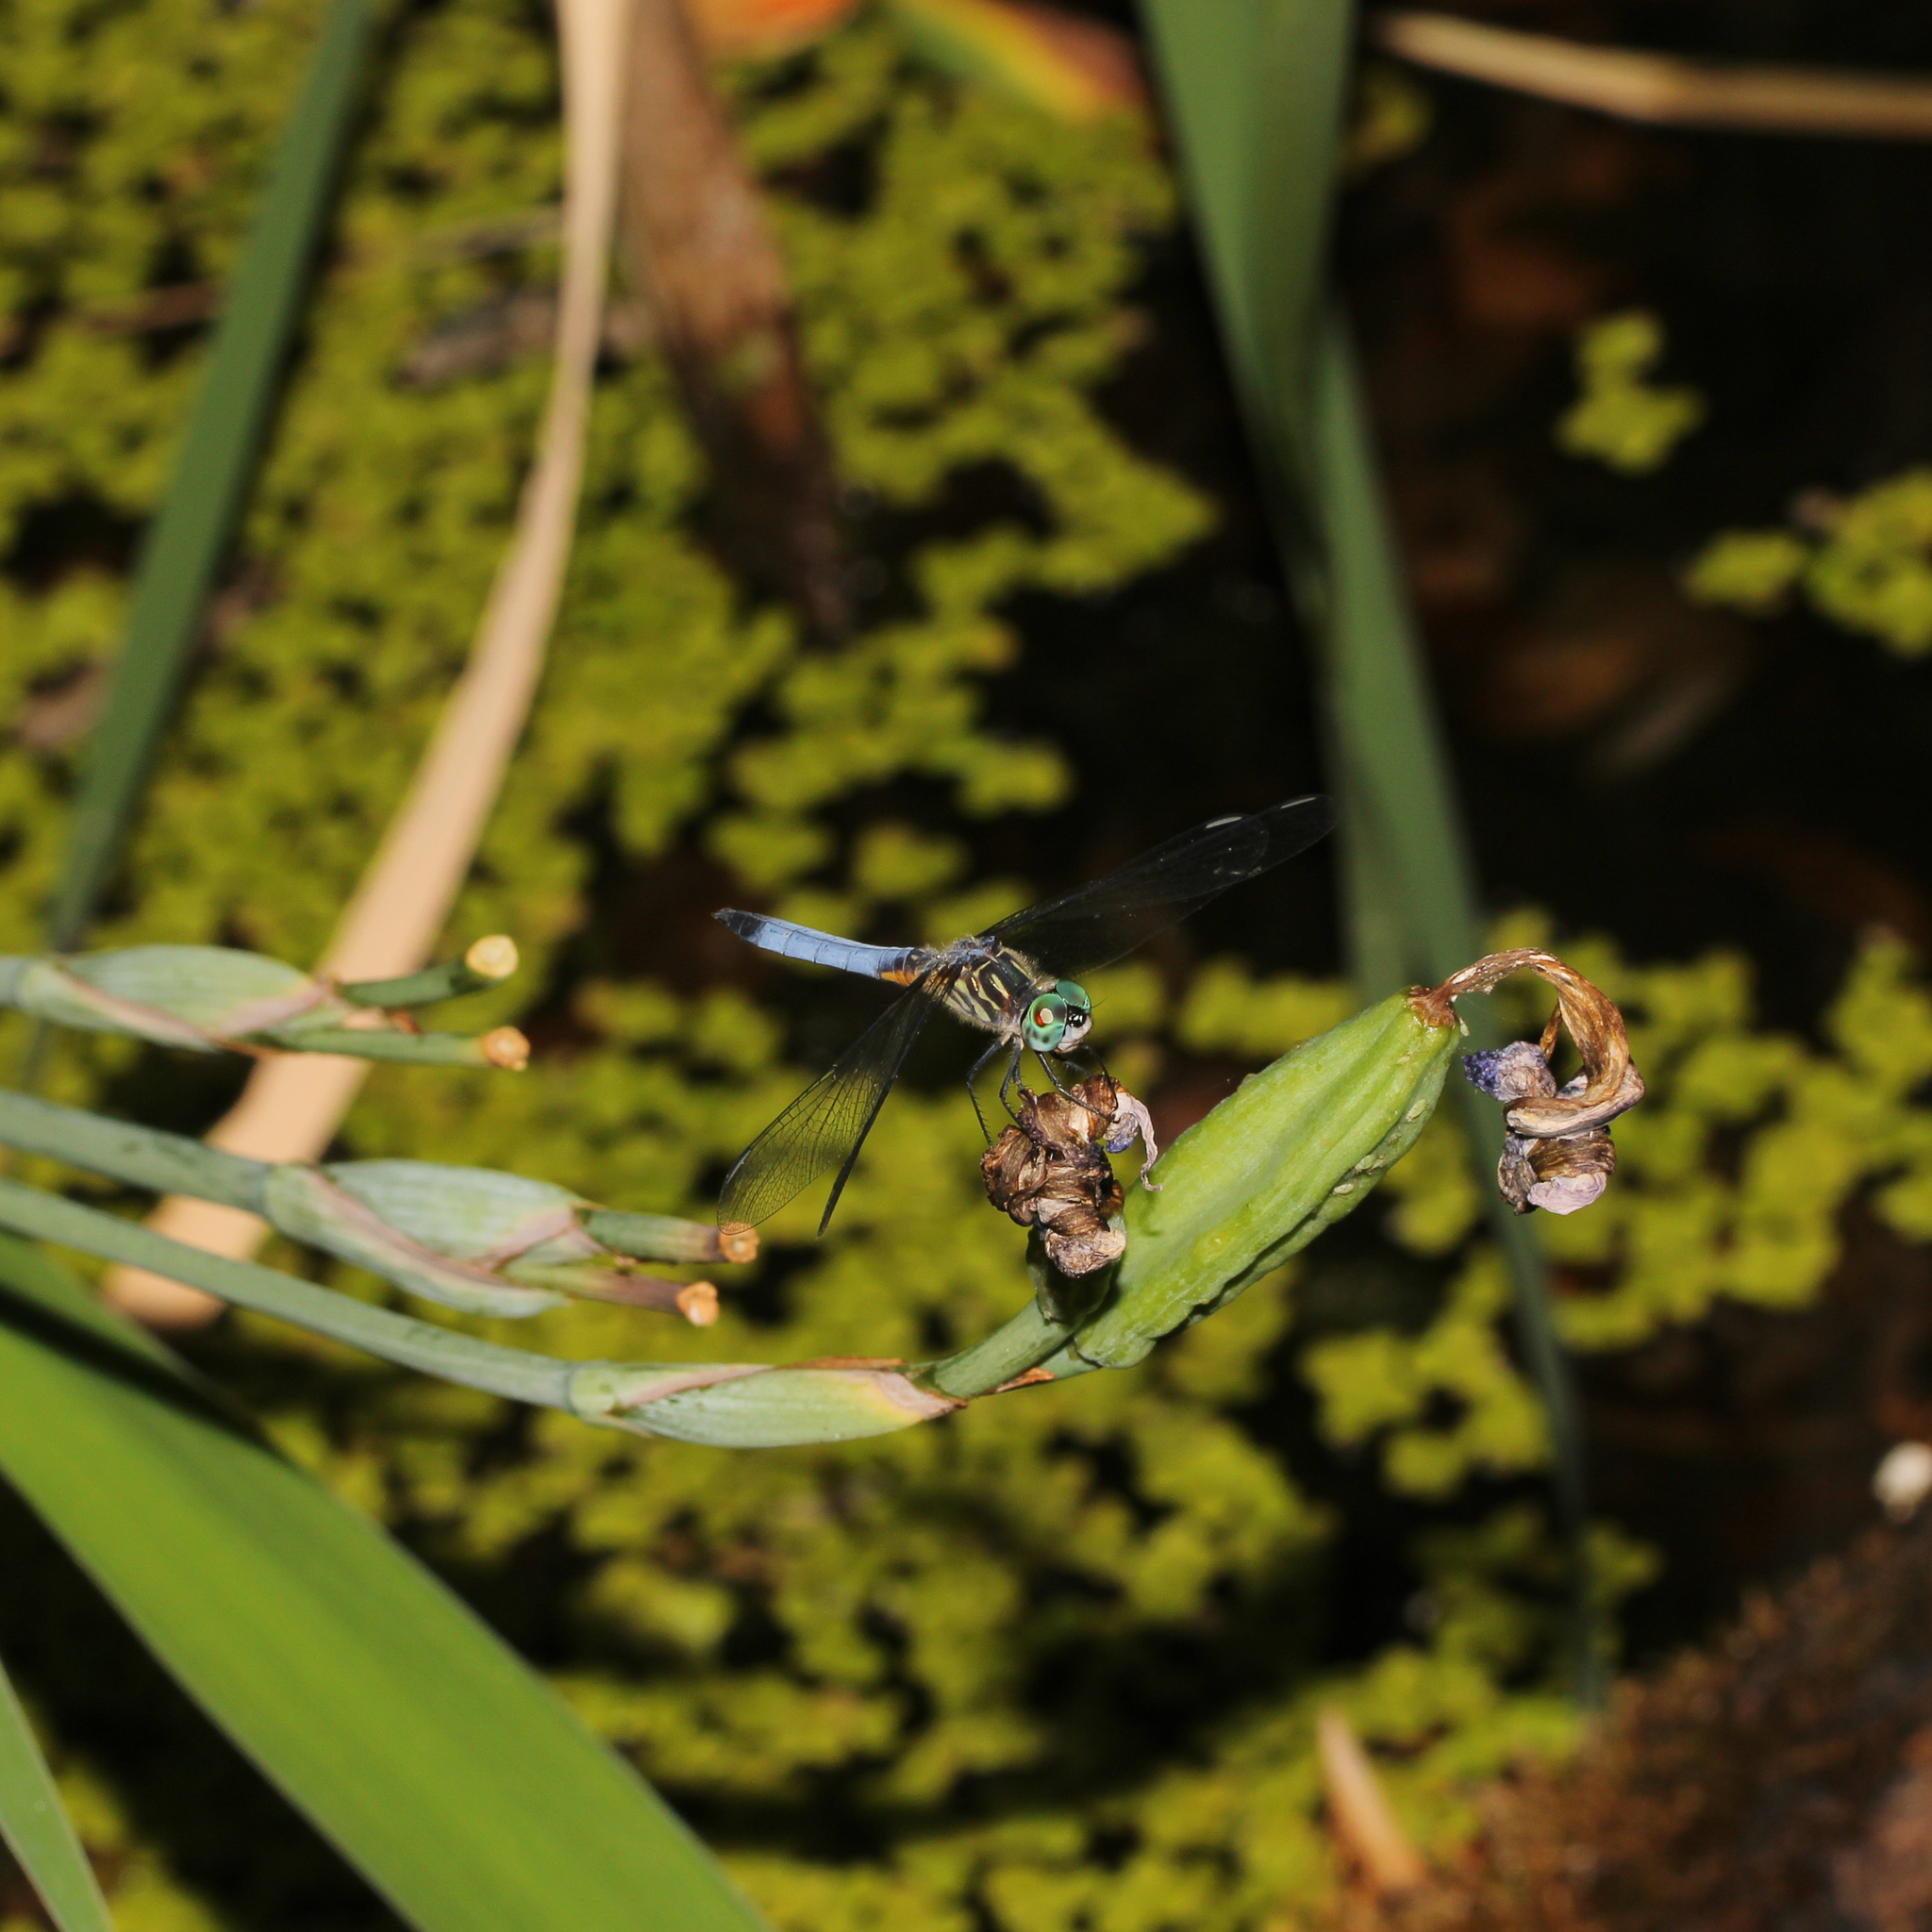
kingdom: Animalia
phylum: Arthropoda
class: Insecta
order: Odonata
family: Libellulidae
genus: Pachydiplax
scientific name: Pachydiplax longipennis
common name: Blue dasher
